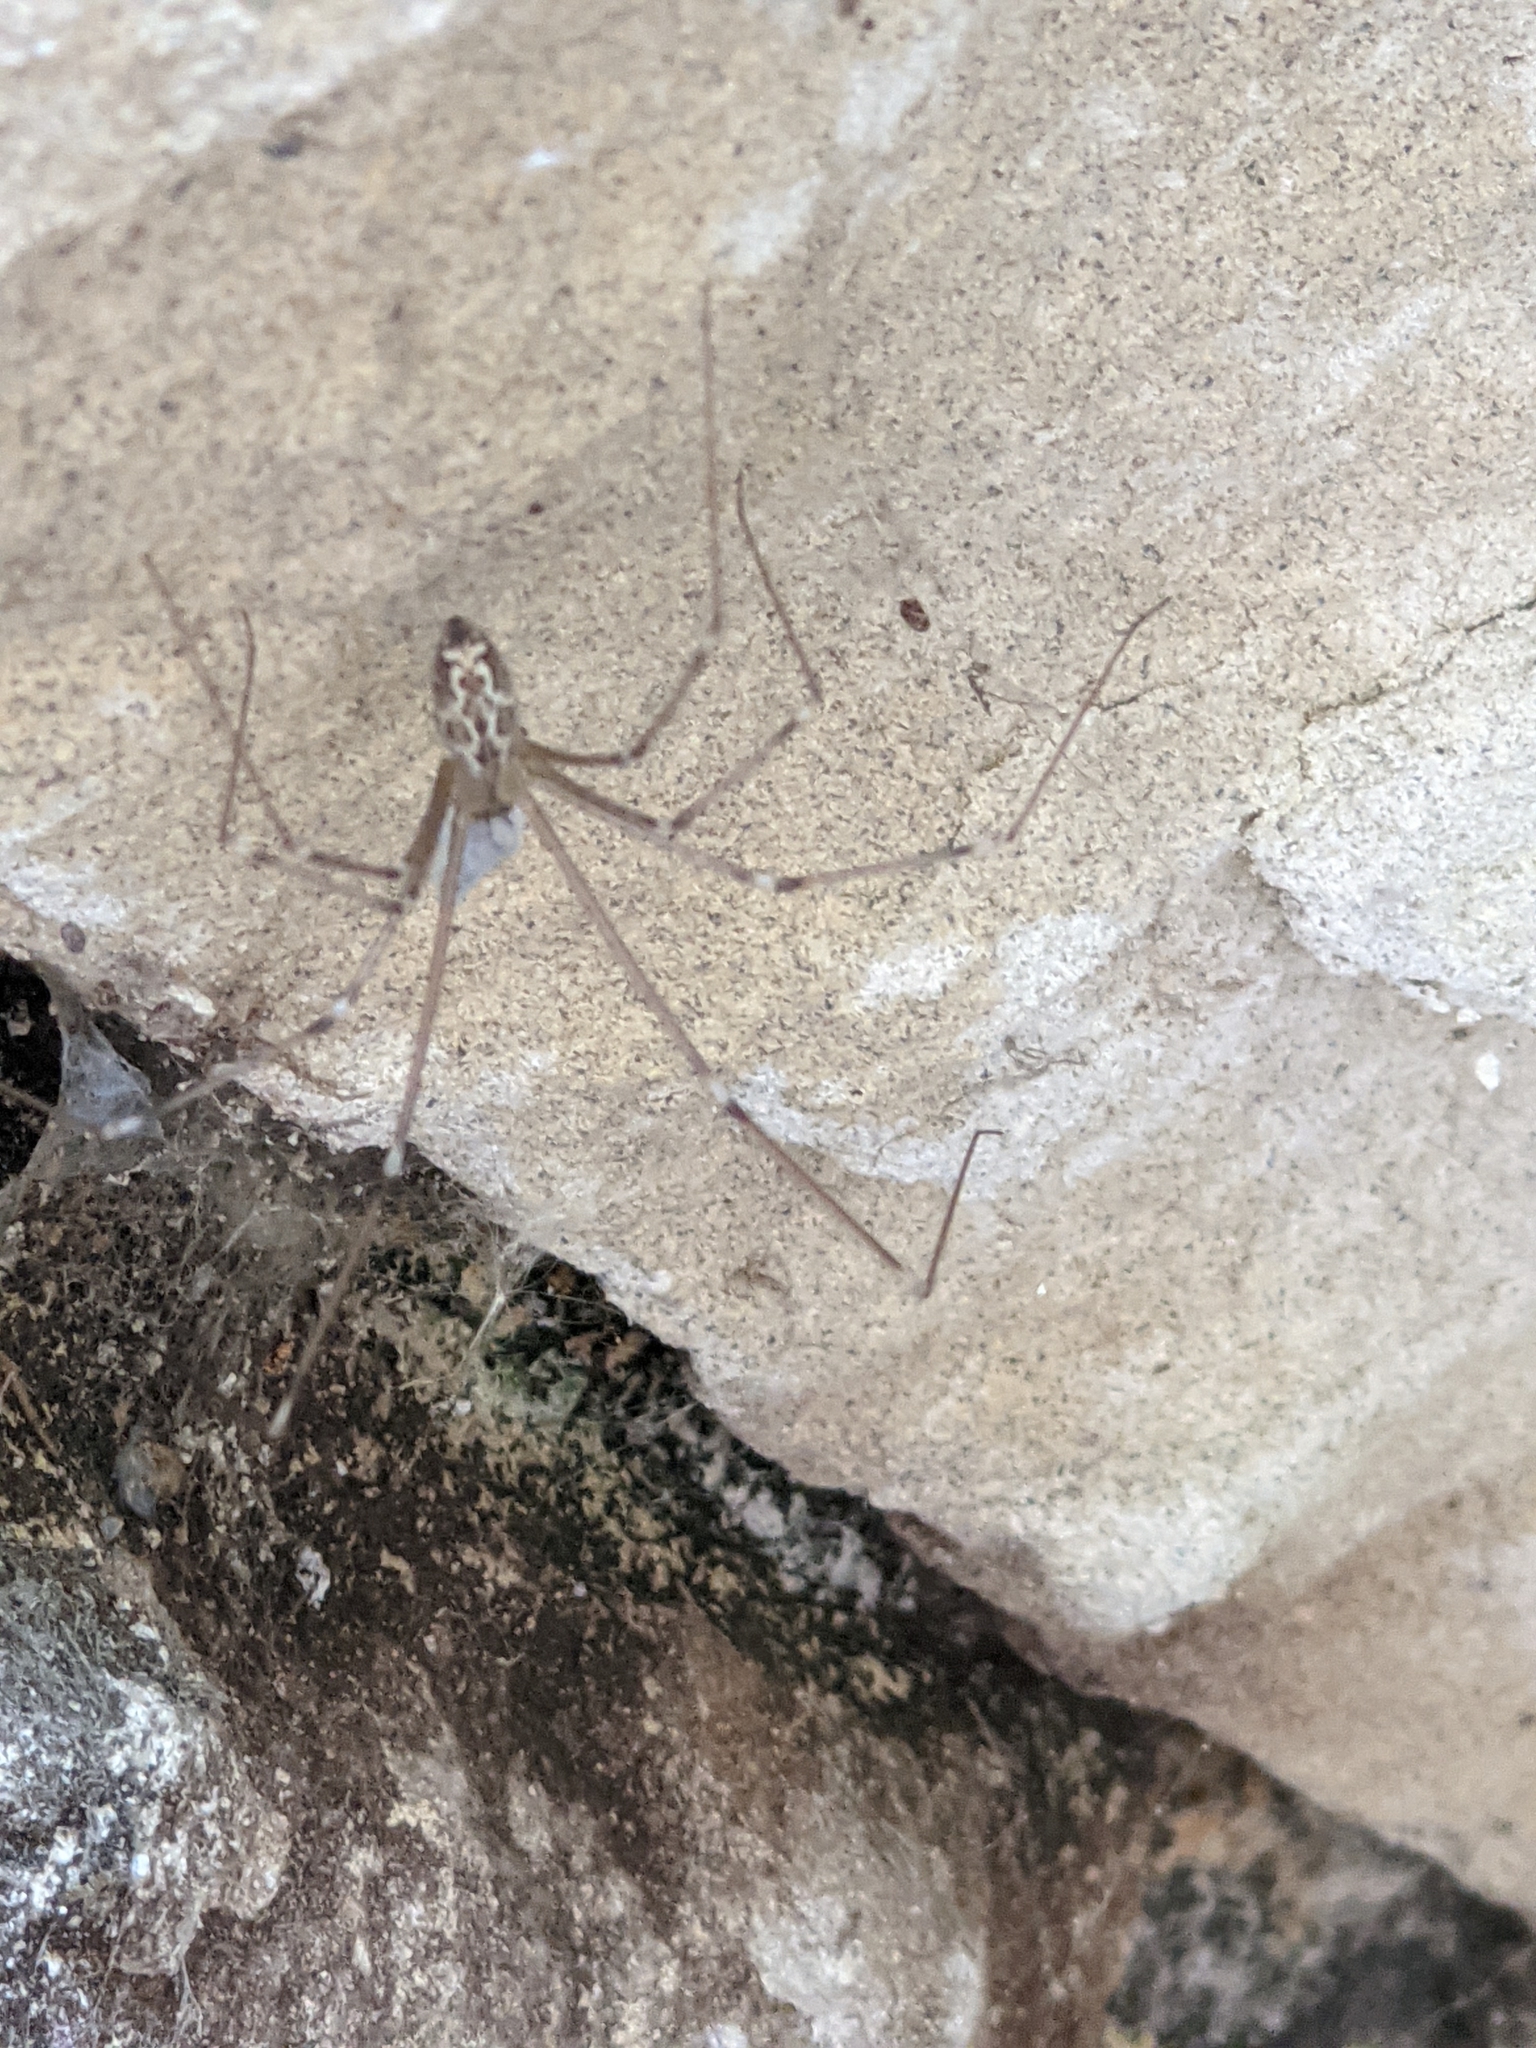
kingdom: Animalia
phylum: Arthropoda
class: Arachnida
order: Araneae
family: Pholcidae
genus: Holocnemus
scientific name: Holocnemus pluchei
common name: Marbled cellar spider
